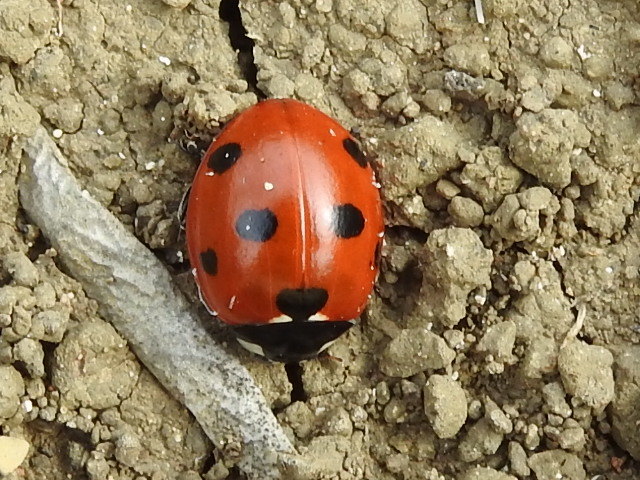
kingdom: Animalia
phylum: Arthropoda
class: Insecta
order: Coleoptera
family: Coccinellidae
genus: Coccinella
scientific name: Coccinella septempunctata
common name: Sevenspotted lady beetle
